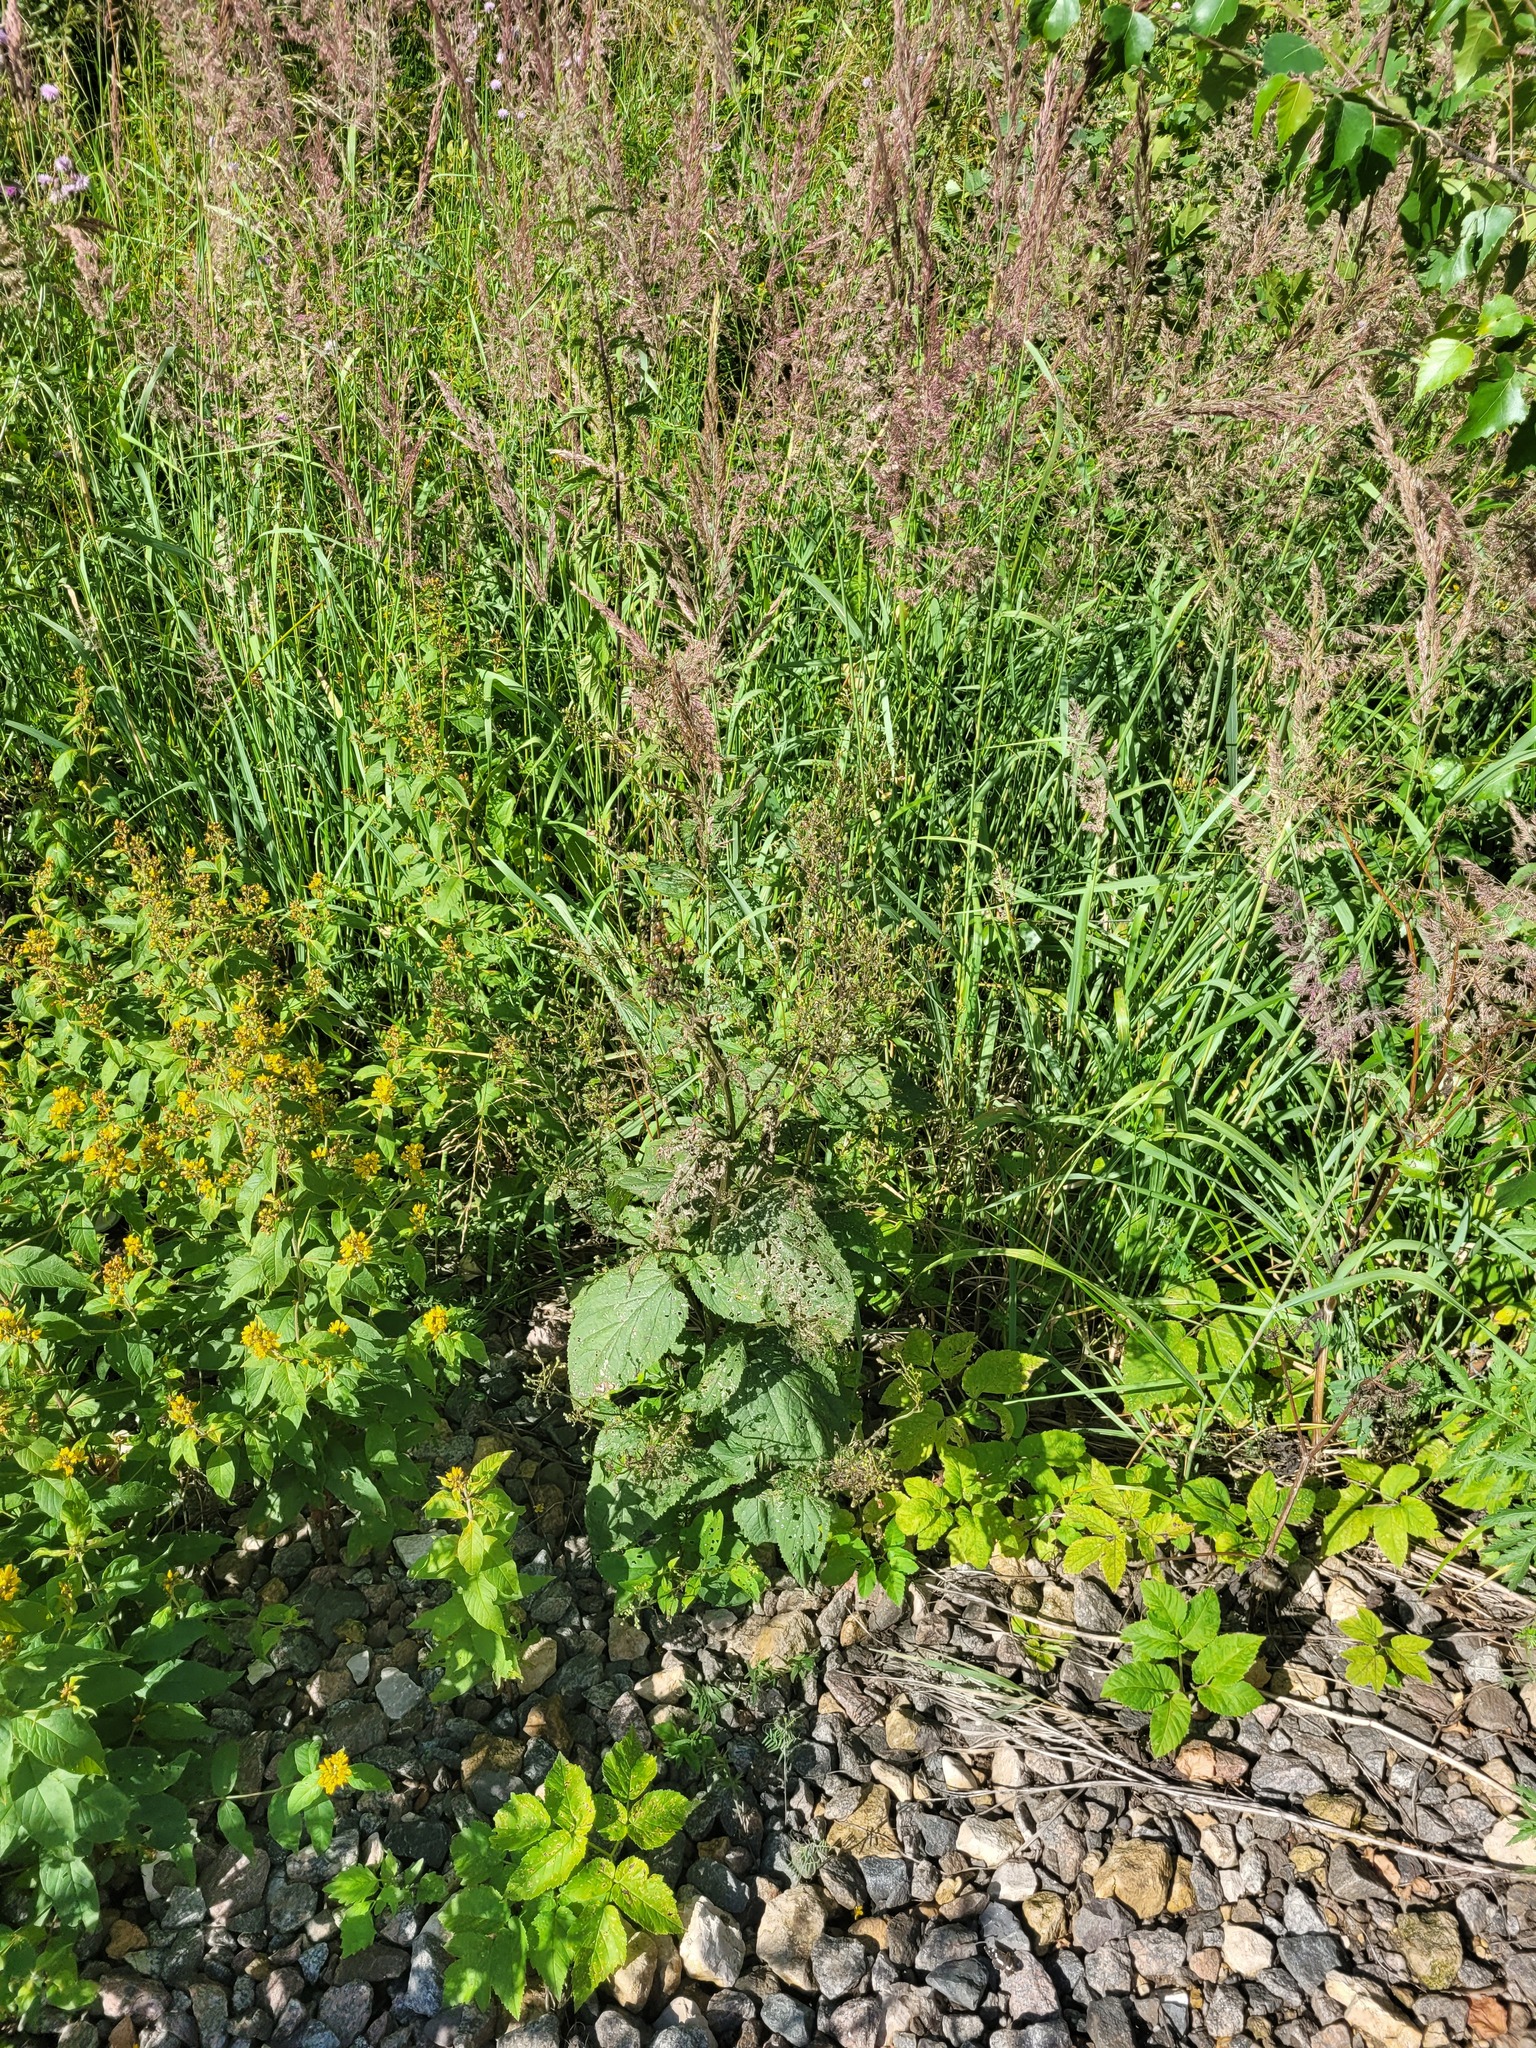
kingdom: Plantae
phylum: Tracheophyta
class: Magnoliopsida
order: Lamiales
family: Scrophulariaceae
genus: Scrophularia
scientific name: Scrophularia nodosa
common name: Common figwort
